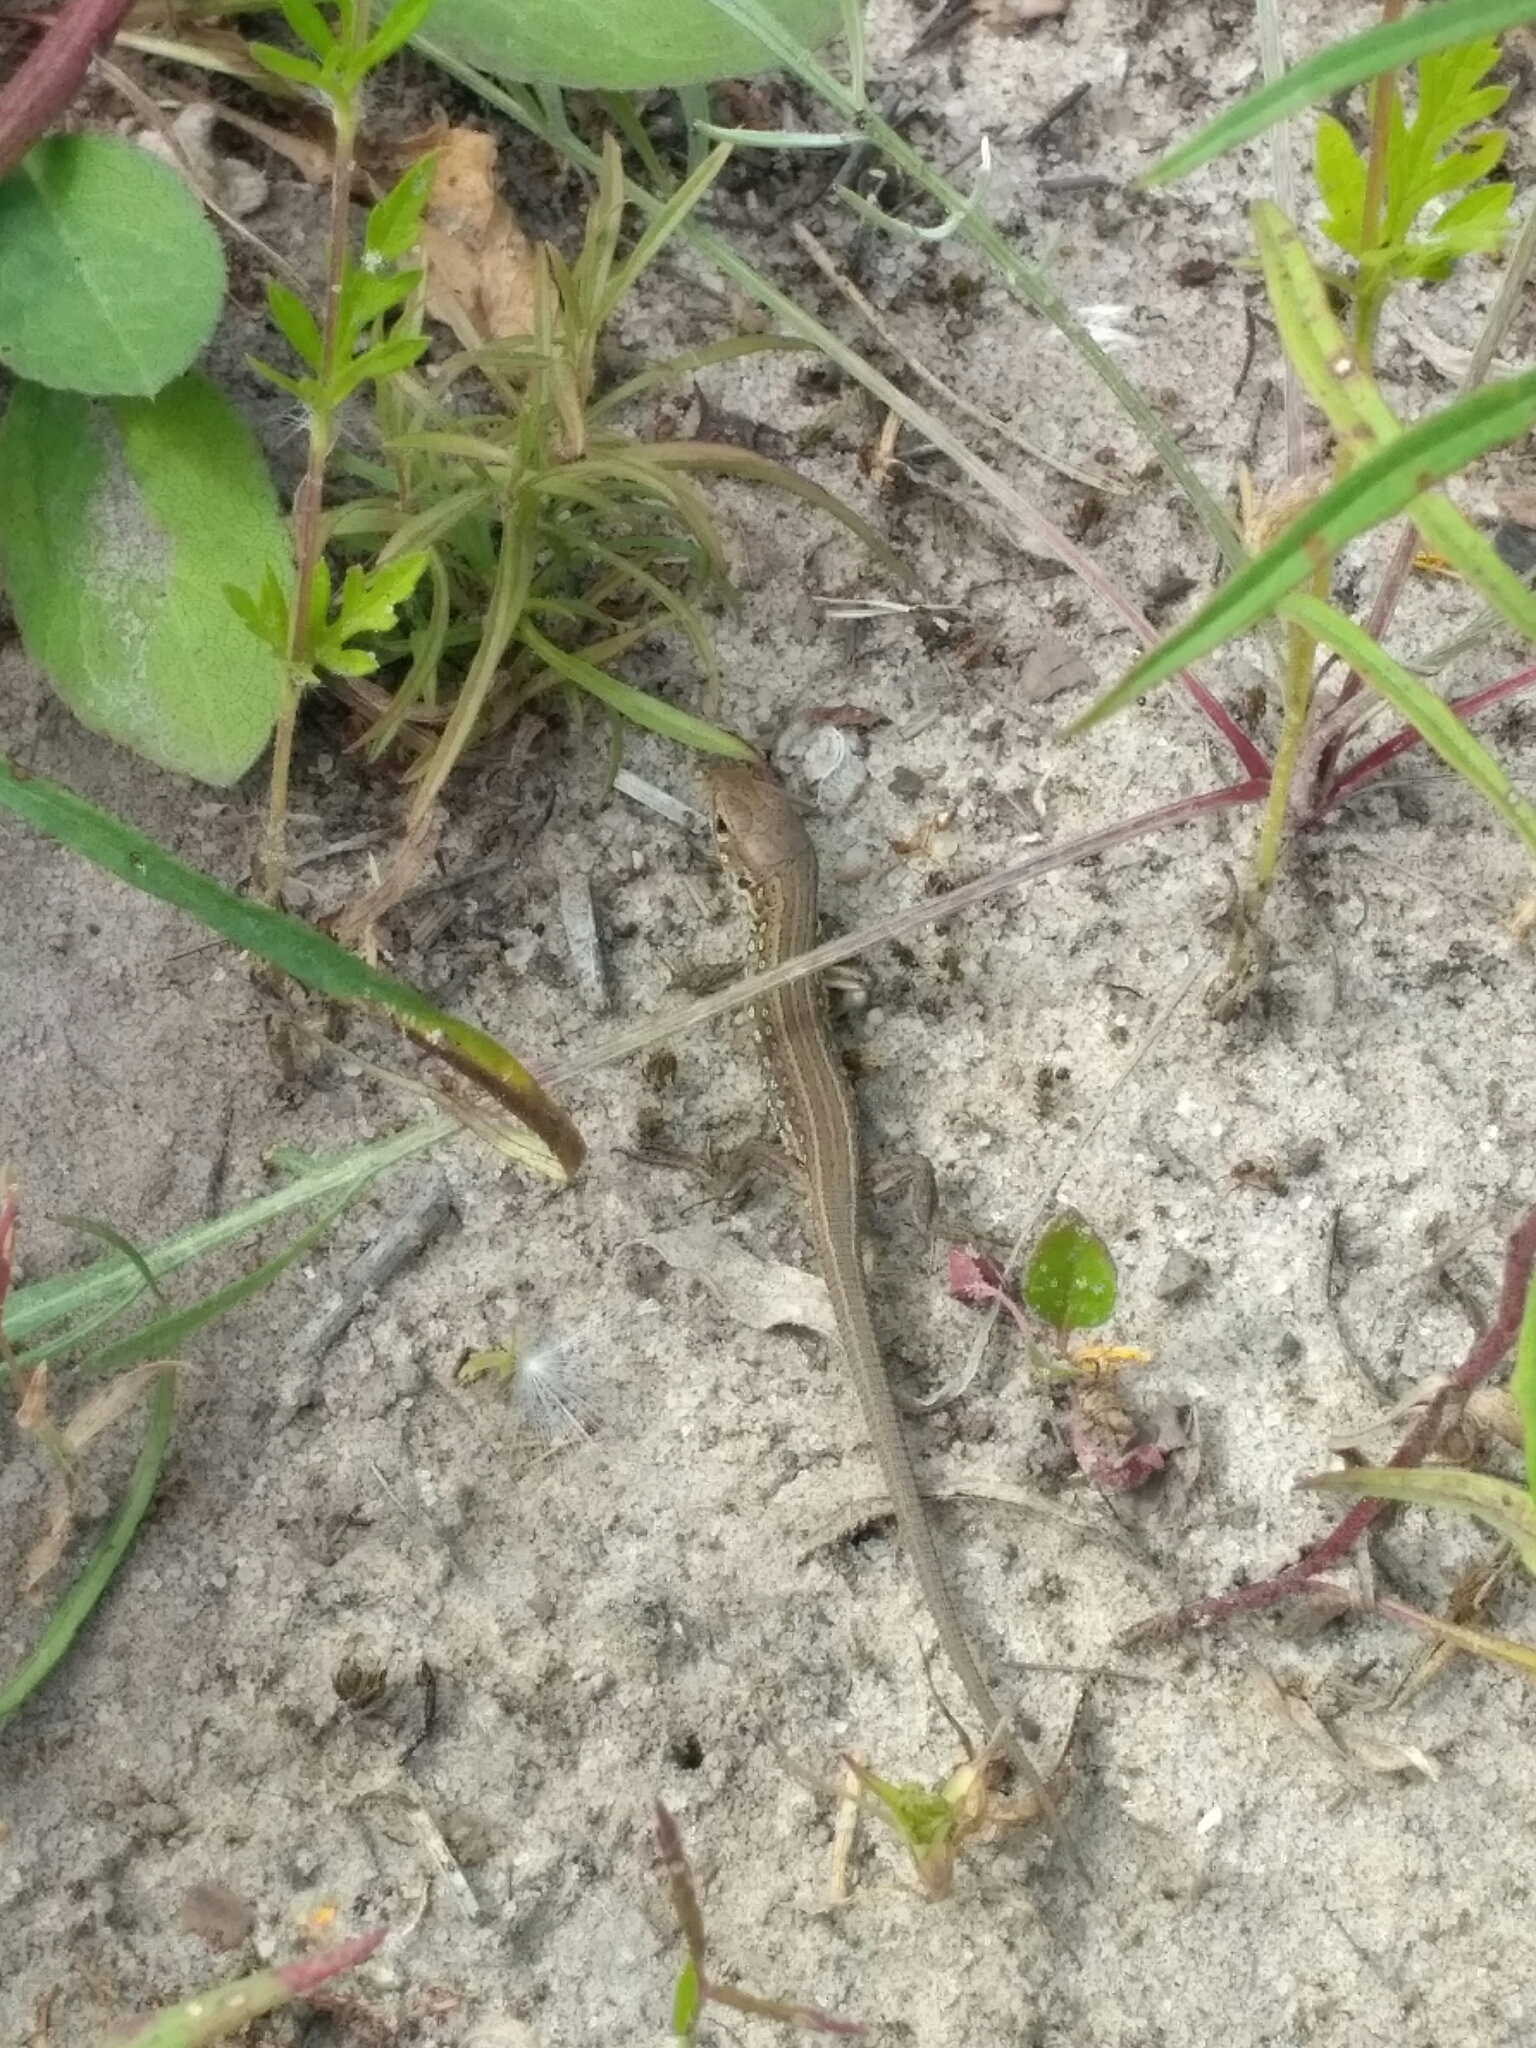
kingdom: Animalia
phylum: Chordata
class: Squamata
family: Lacertidae
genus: Lacerta
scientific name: Lacerta agilis
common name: Sand lizard
